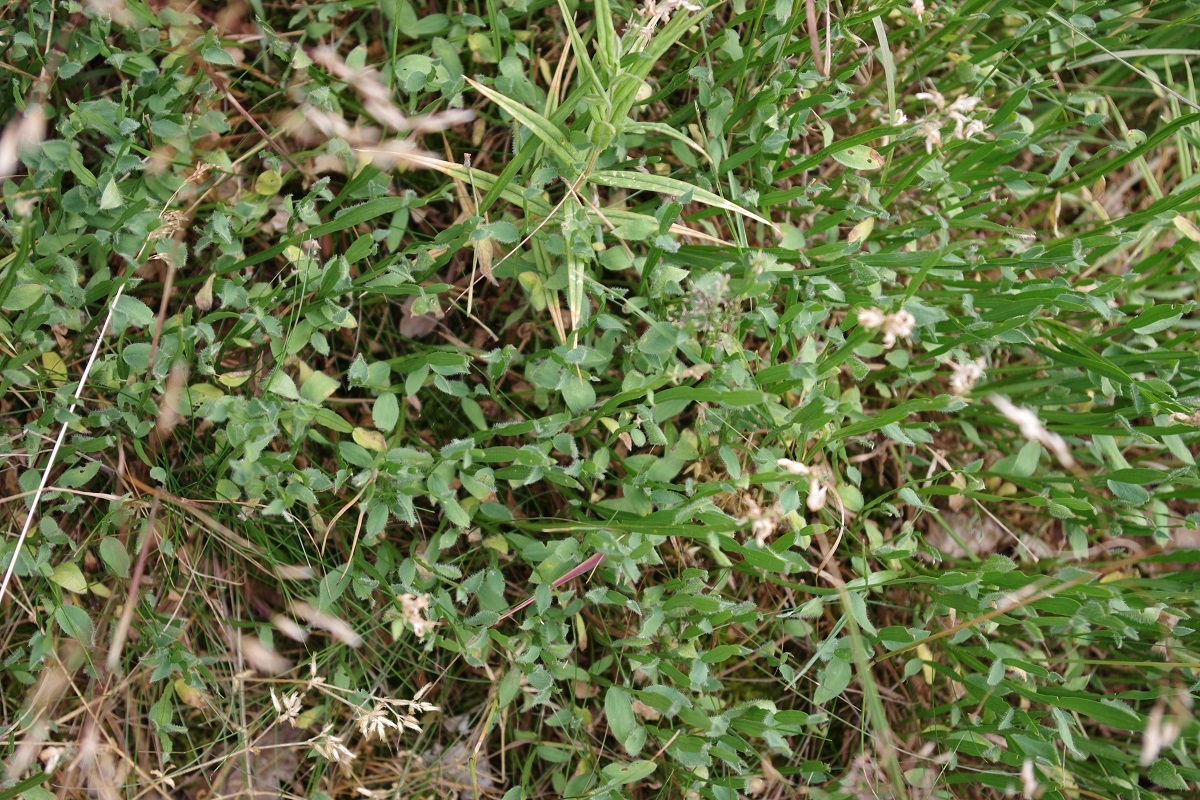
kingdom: Plantae
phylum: Tracheophyta
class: Magnoliopsida
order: Fabales
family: Fabaceae
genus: Genista
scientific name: Genista sagittalis
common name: Winged greenweed
